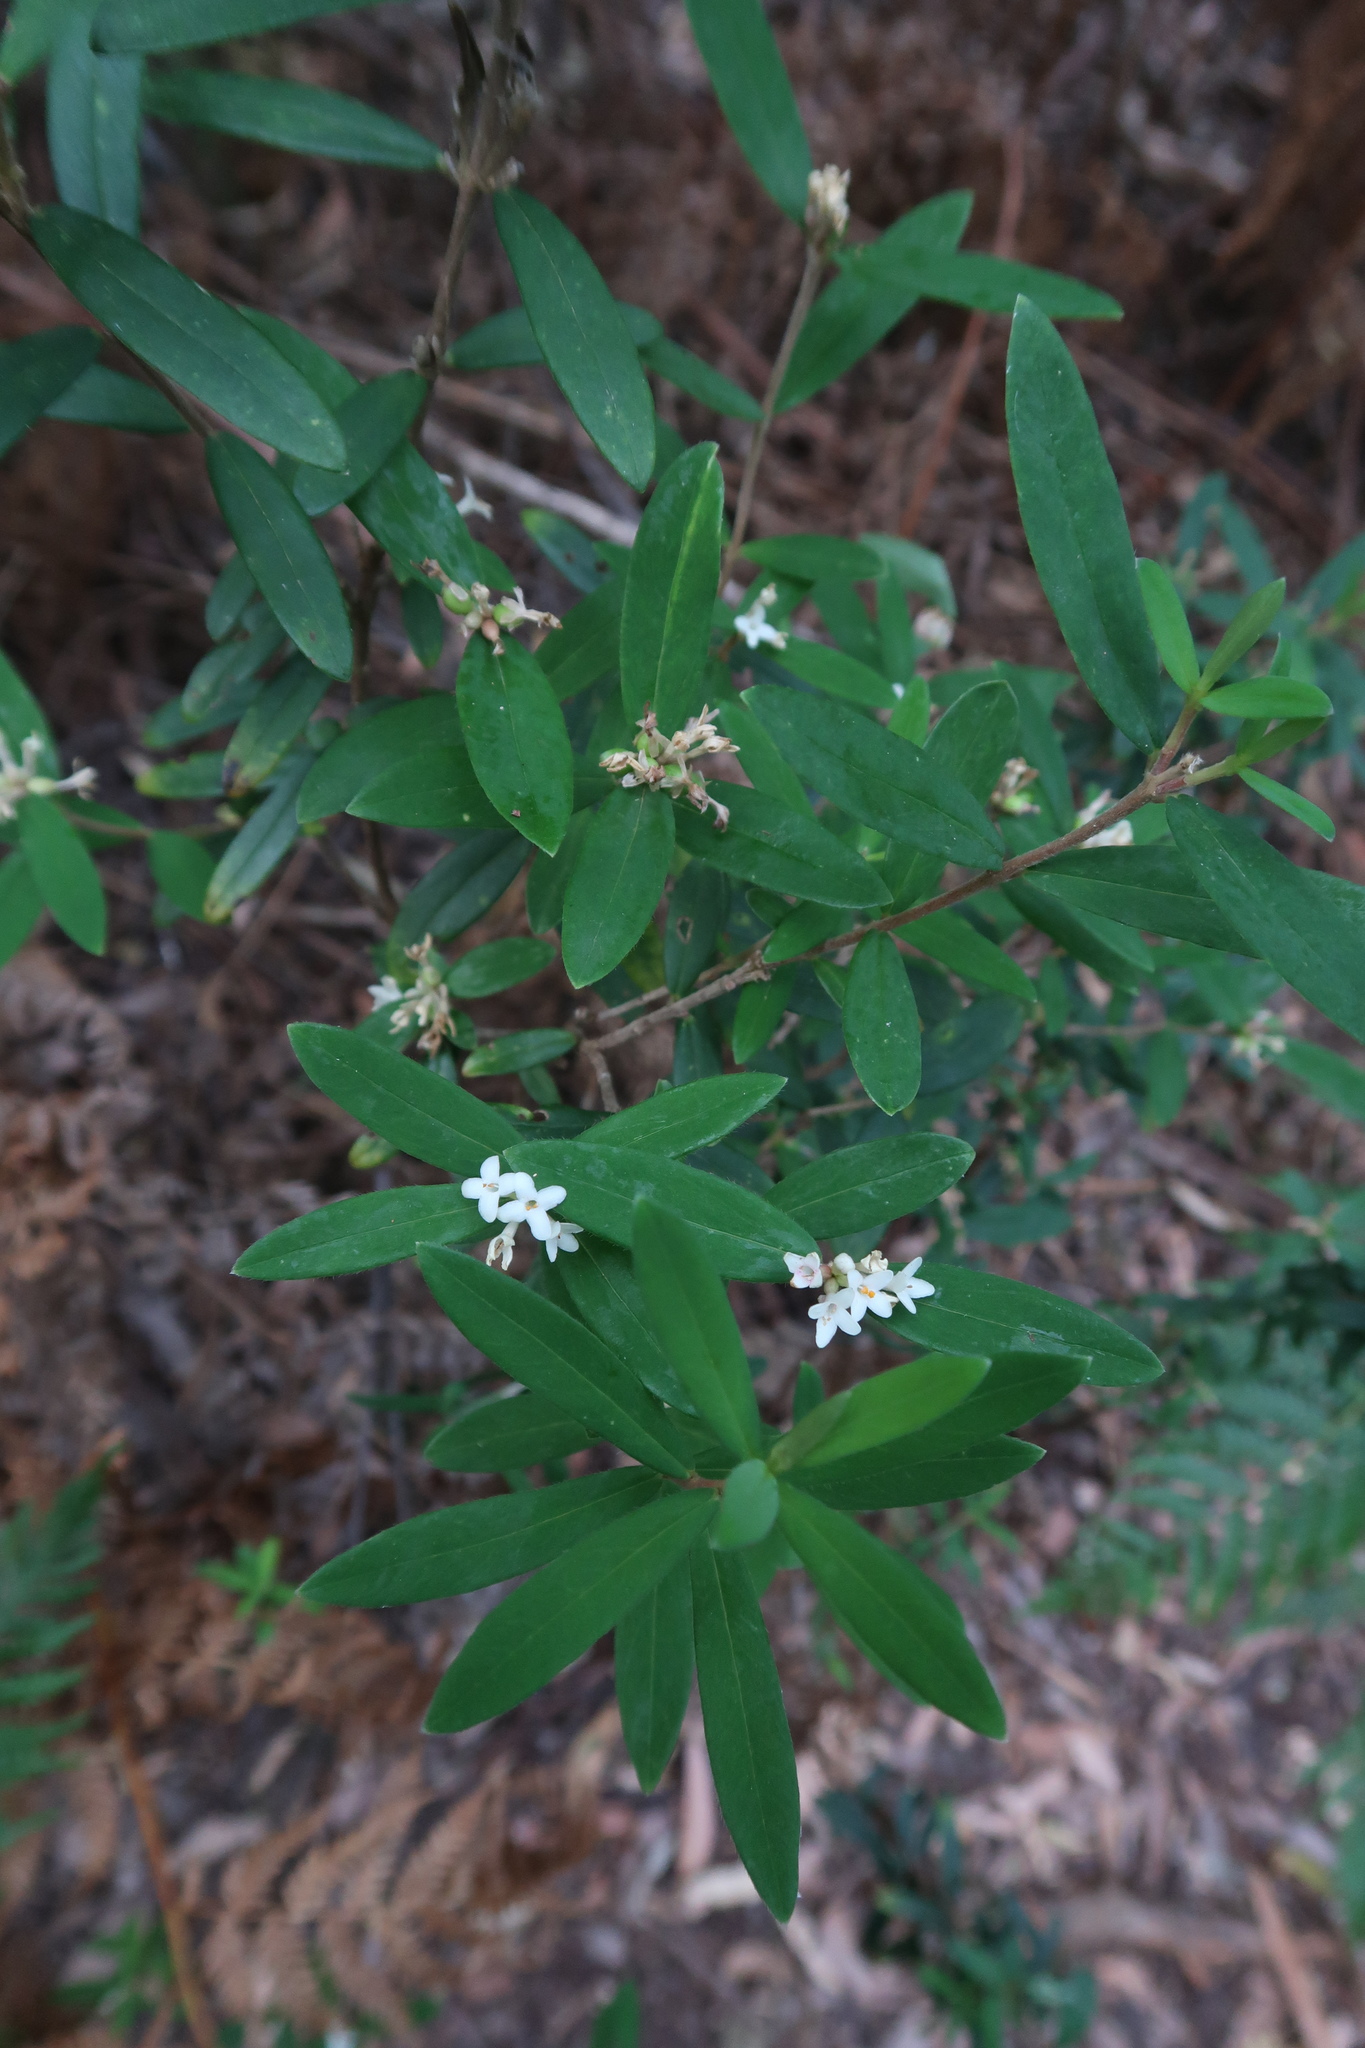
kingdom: Plantae
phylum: Tracheophyta
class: Magnoliopsida
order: Malvales
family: Thymelaeaceae
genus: Pimelea
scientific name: Pimelea drupacea
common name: Cherry riceflower
